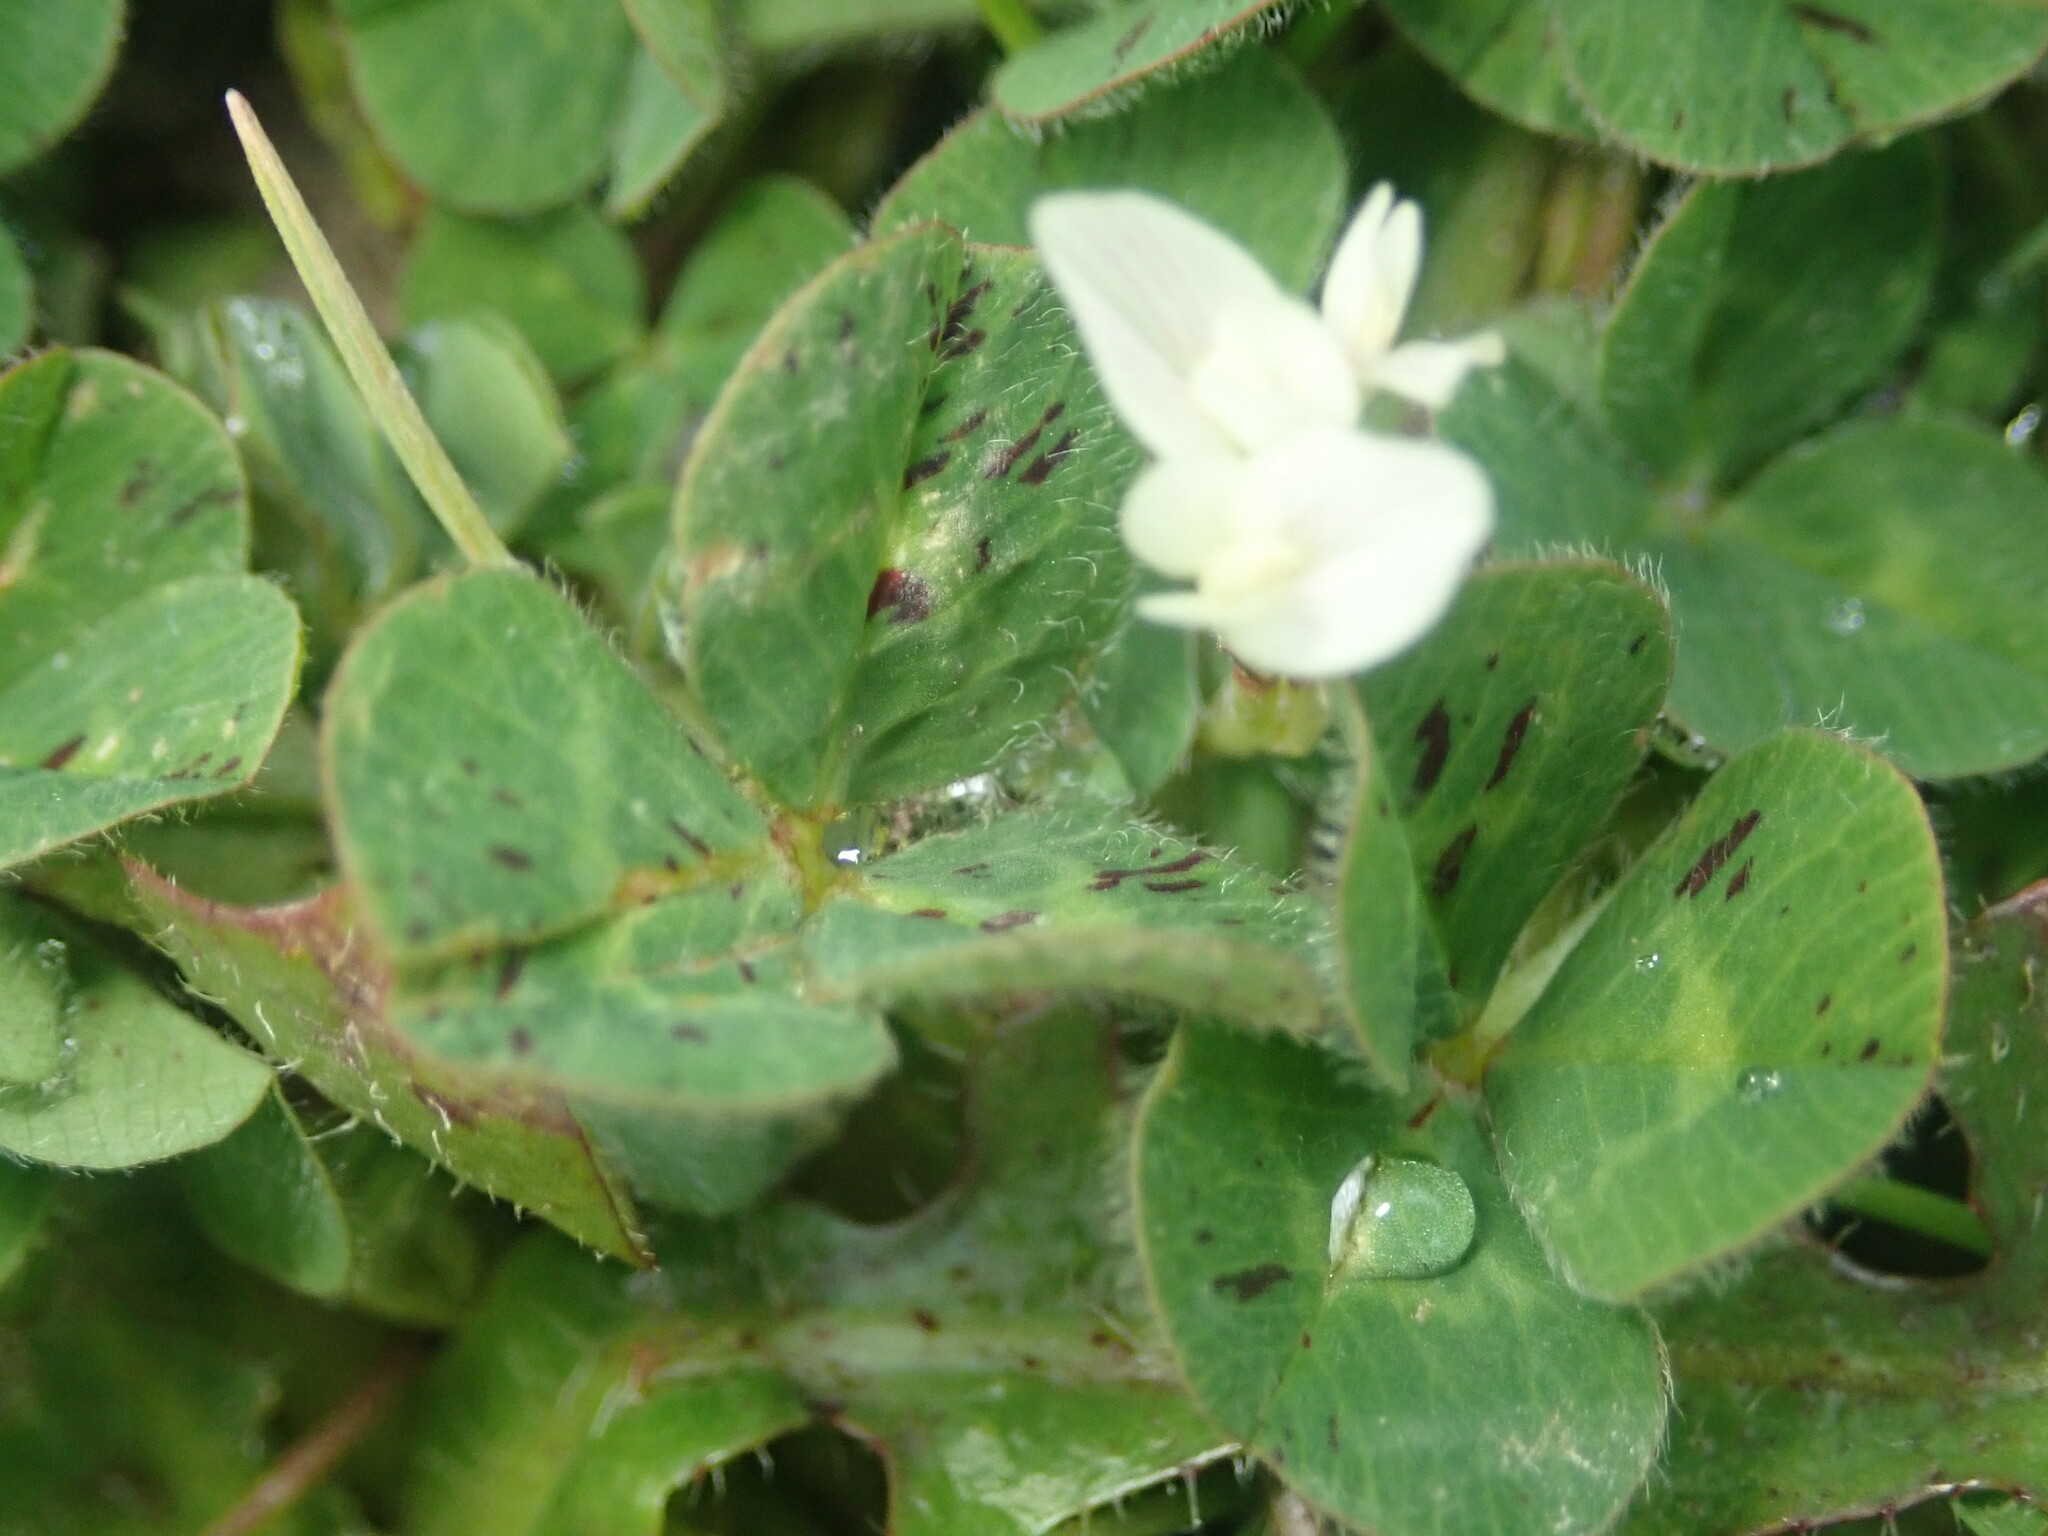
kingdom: Plantae
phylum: Tracheophyta
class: Magnoliopsida
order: Fabales
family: Fabaceae
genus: Trifolium
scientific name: Trifolium subterraneum
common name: Subterranean clover
